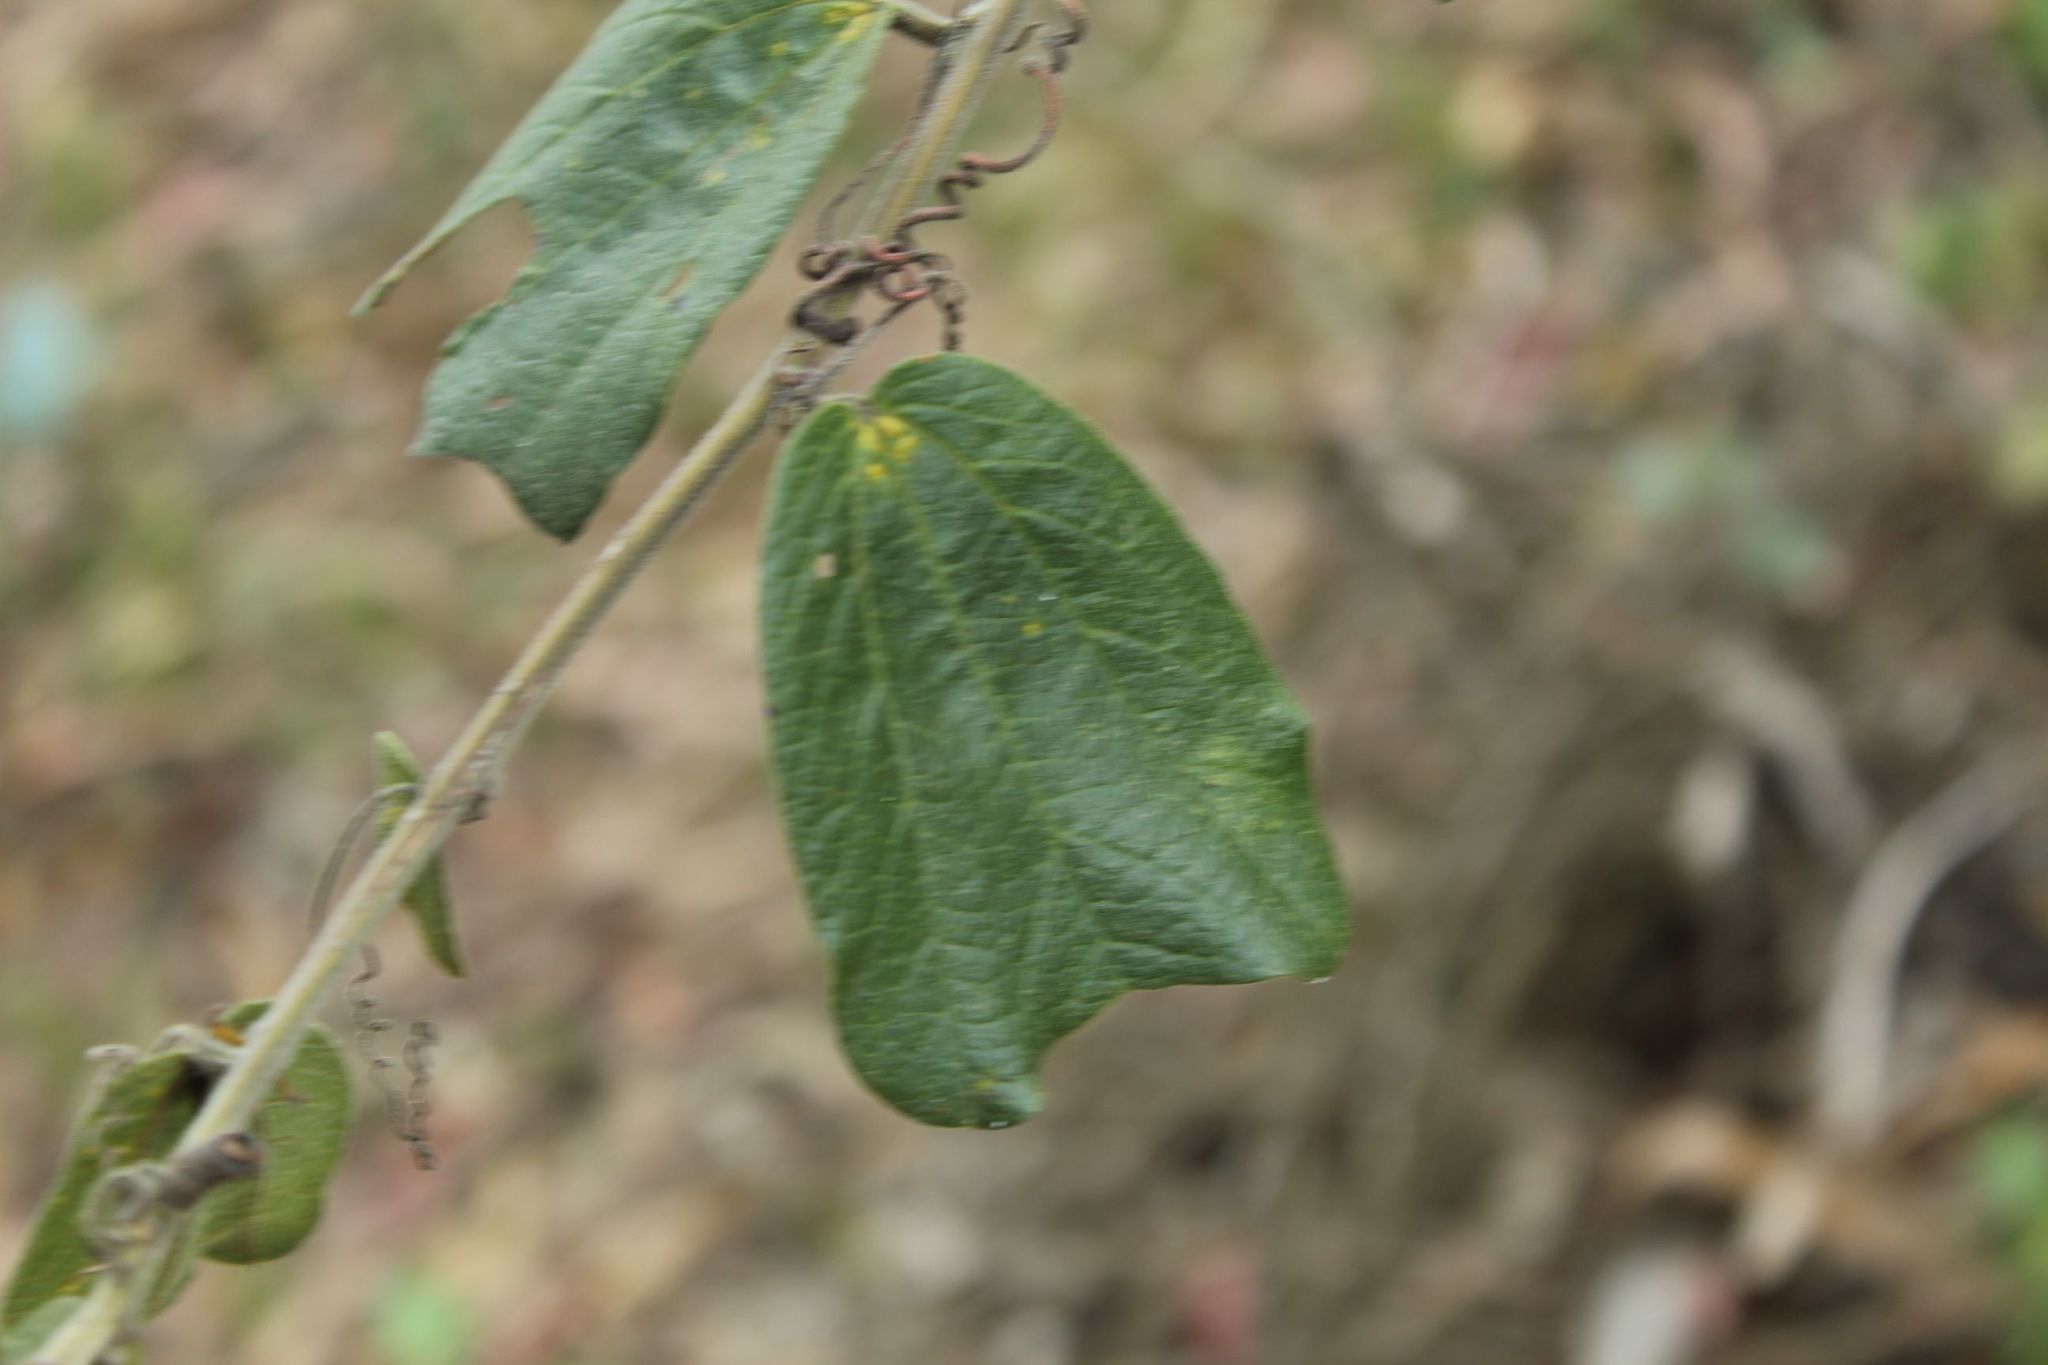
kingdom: Plantae
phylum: Tracheophyta
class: Magnoliopsida
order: Malpighiales
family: Passifloraceae
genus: Passiflora
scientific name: Passiflora bogotensis
